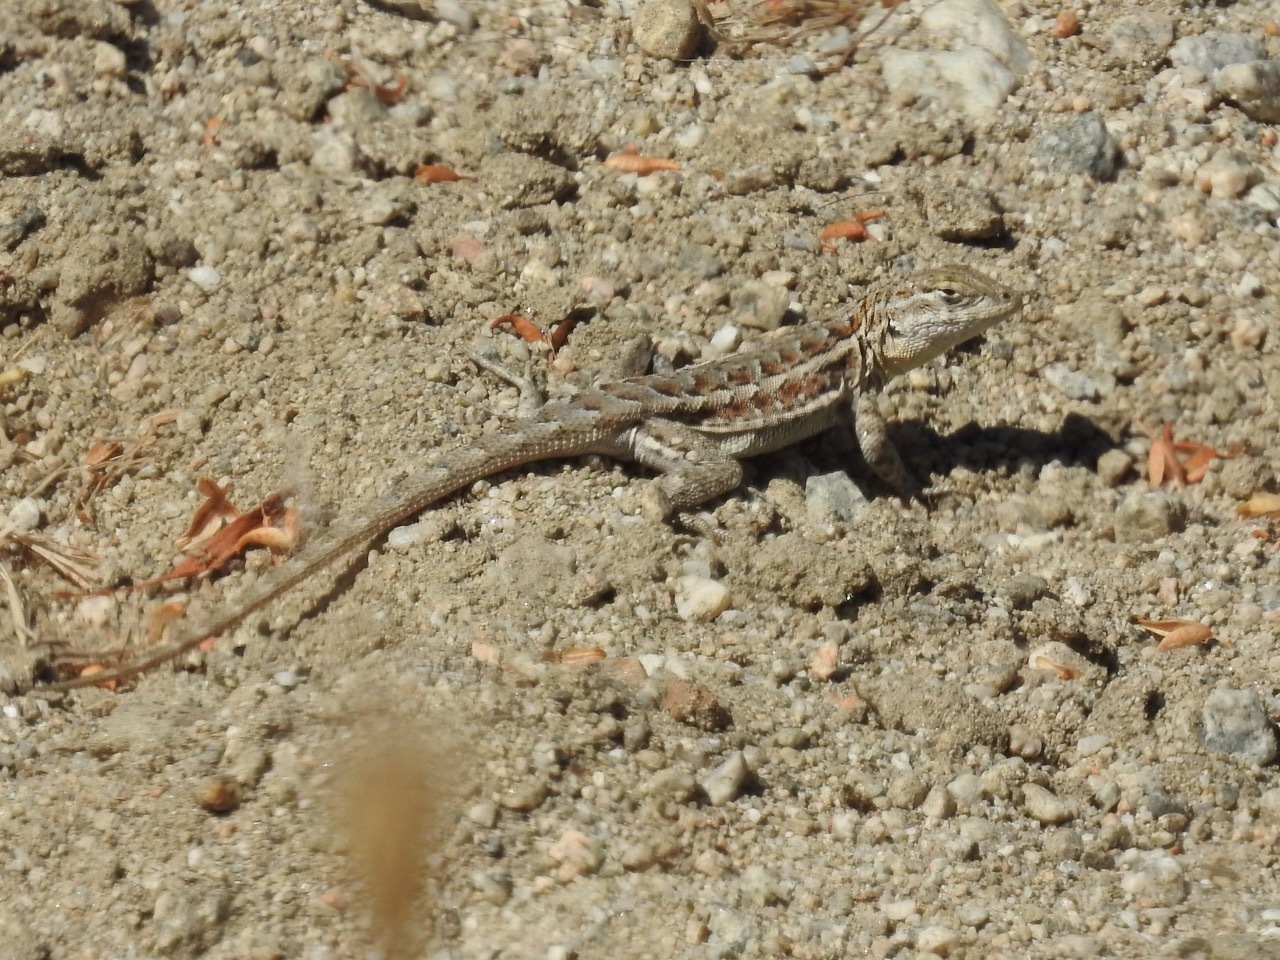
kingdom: Animalia
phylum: Chordata
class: Squamata
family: Phrynosomatidae
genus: Uta
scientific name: Uta stansburiana
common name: Side-blotched lizard
